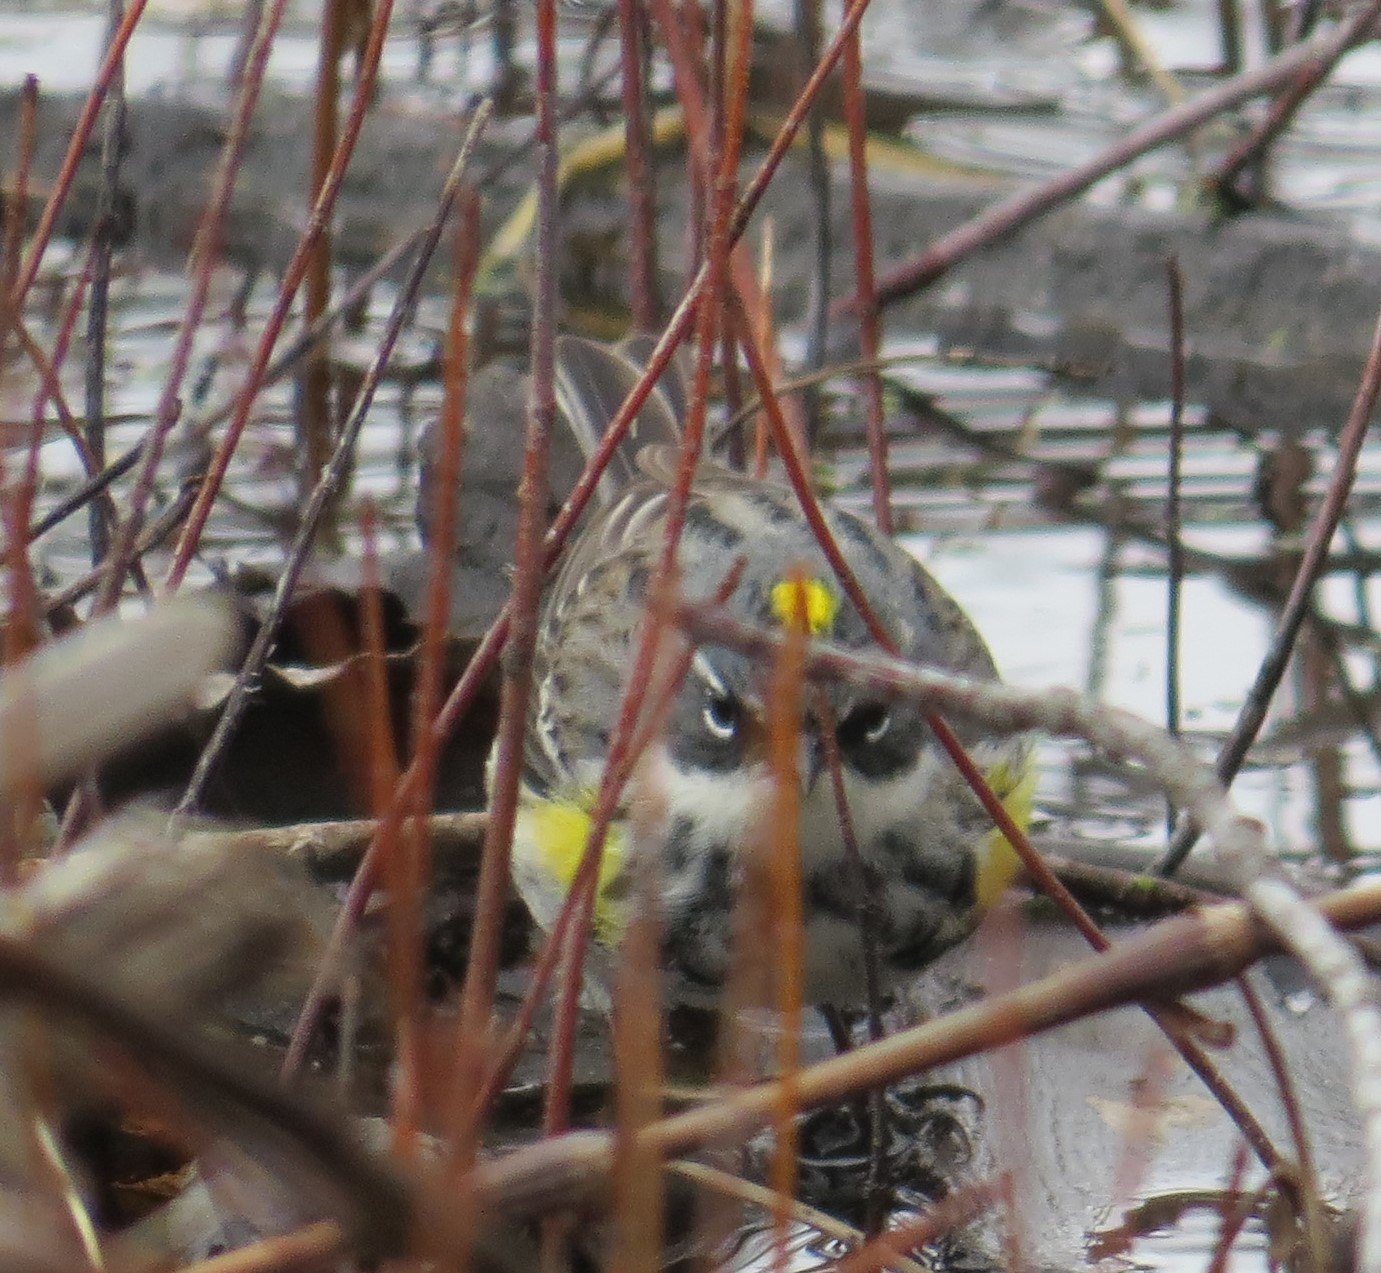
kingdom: Animalia
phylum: Chordata
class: Aves
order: Passeriformes
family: Parulidae
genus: Setophaga
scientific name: Setophaga coronata
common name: Myrtle warbler
